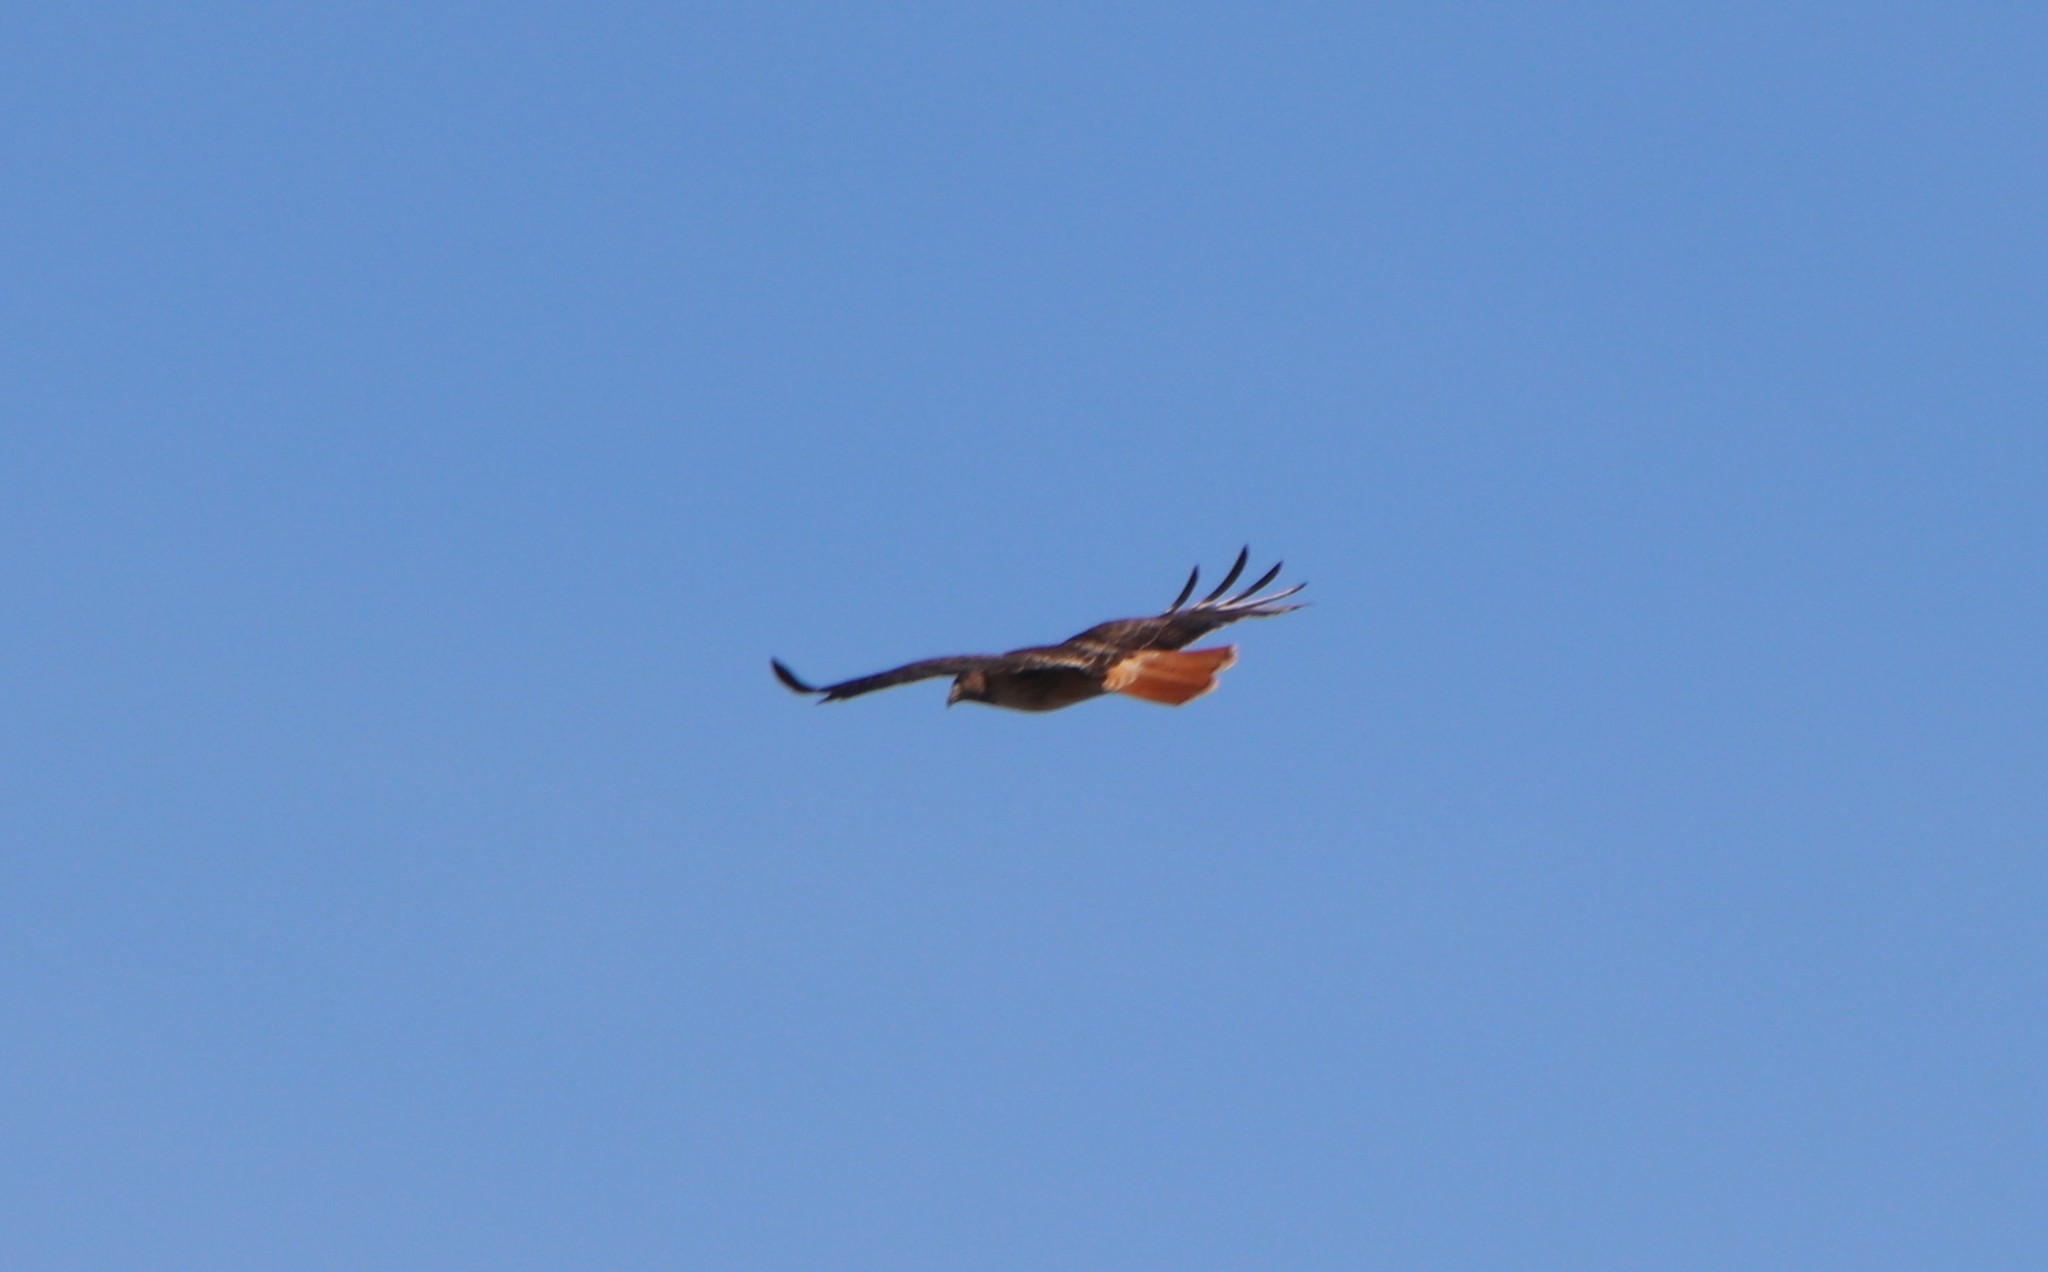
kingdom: Animalia
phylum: Chordata
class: Aves
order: Accipitriformes
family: Accipitridae
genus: Buteo
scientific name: Buteo jamaicensis
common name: Red-tailed hawk
